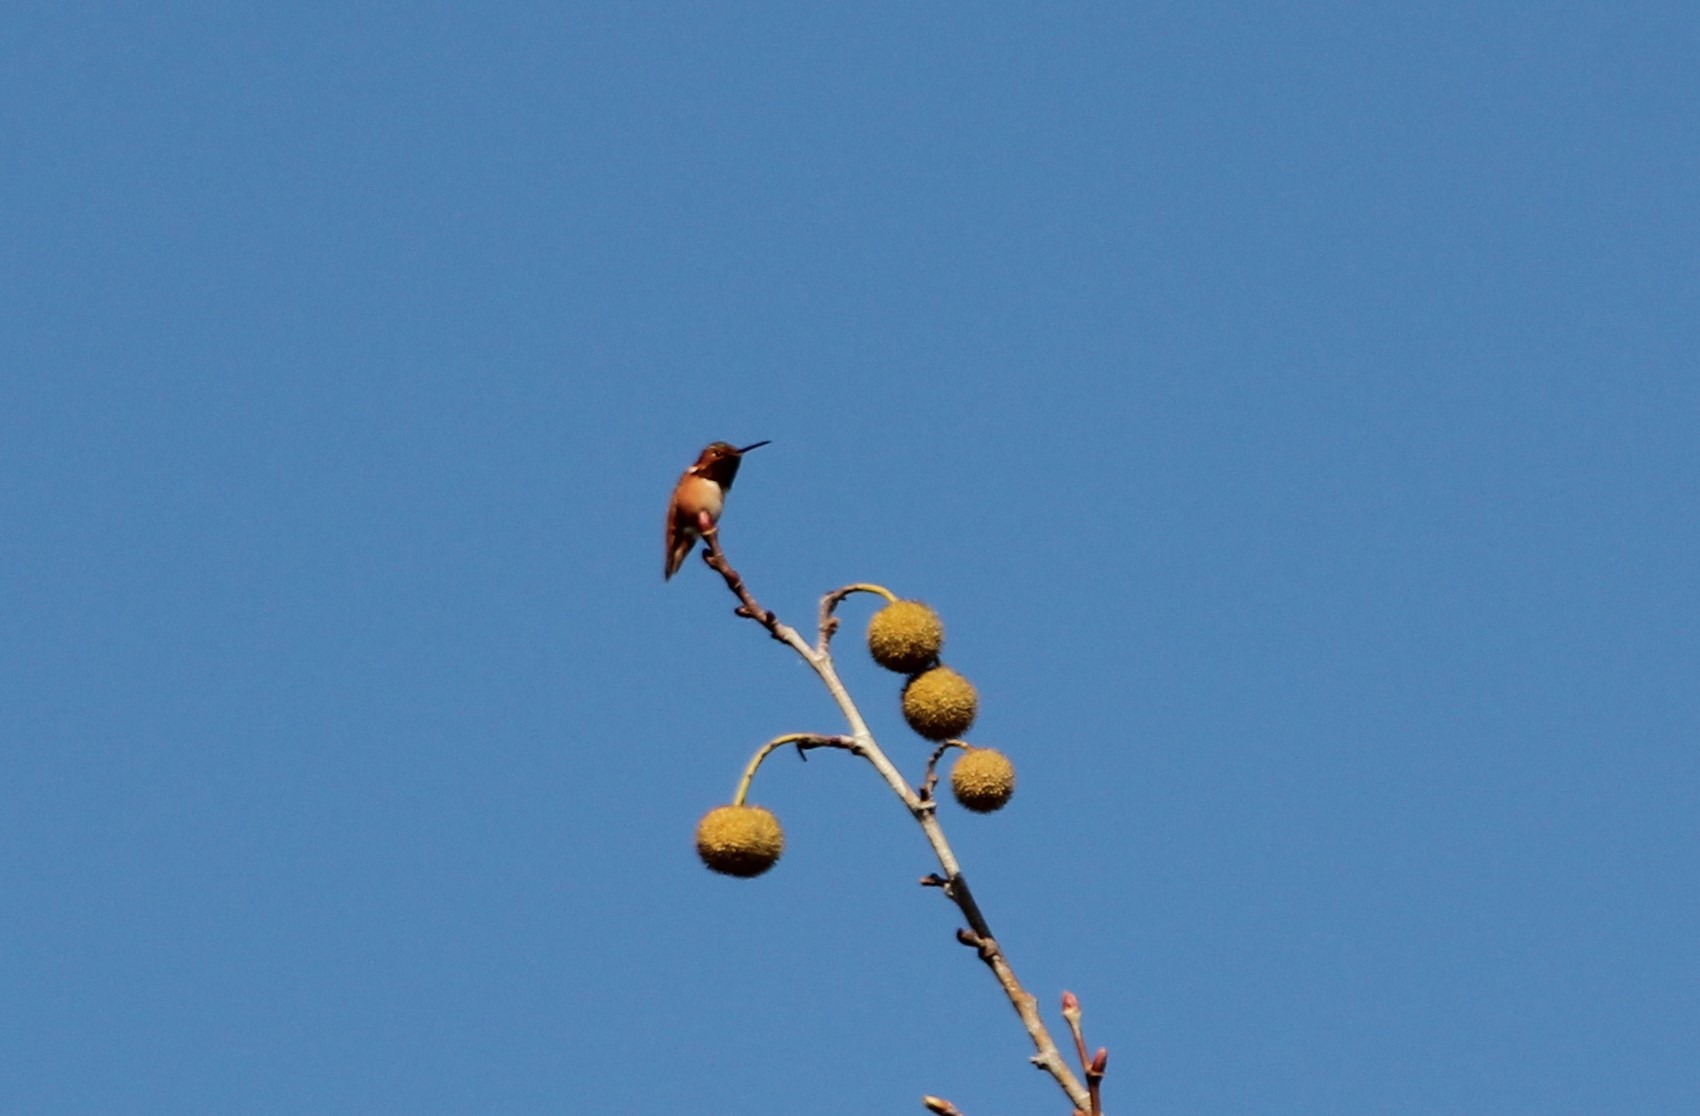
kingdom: Animalia
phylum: Chordata
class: Aves
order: Apodiformes
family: Trochilidae
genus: Selasphorus
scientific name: Selasphorus sasin
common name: Allen's hummingbird
